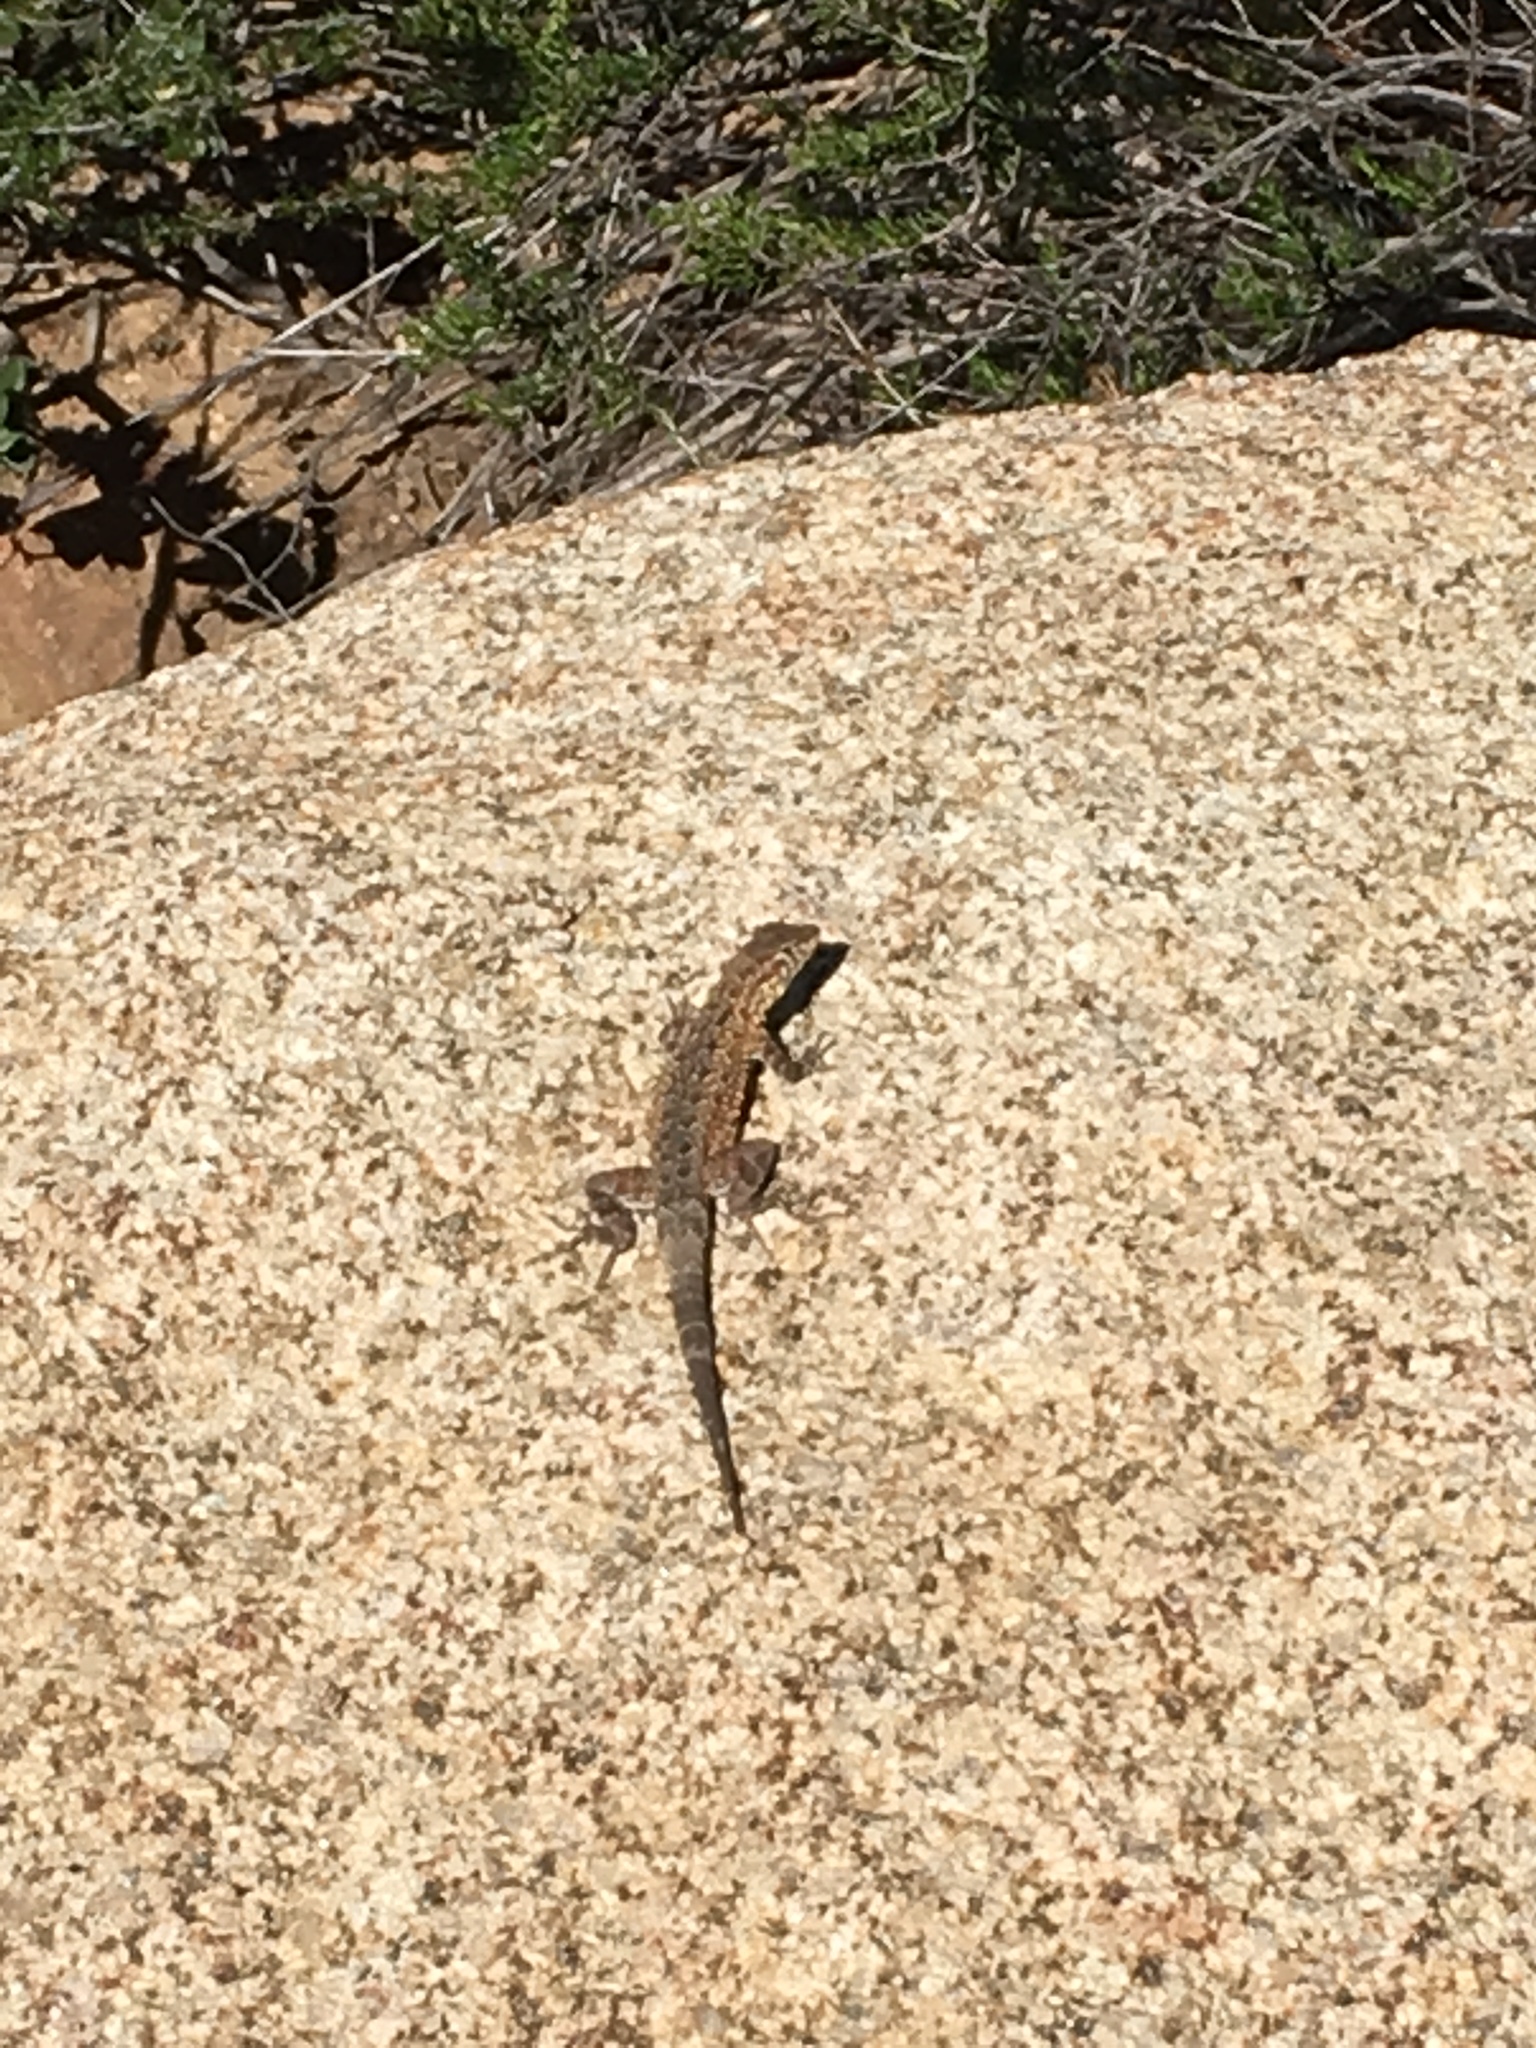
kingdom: Animalia
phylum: Chordata
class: Squamata
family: Phrynosomatidae
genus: Uta
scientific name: Uta stansburiana
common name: Side-blotched lizard
